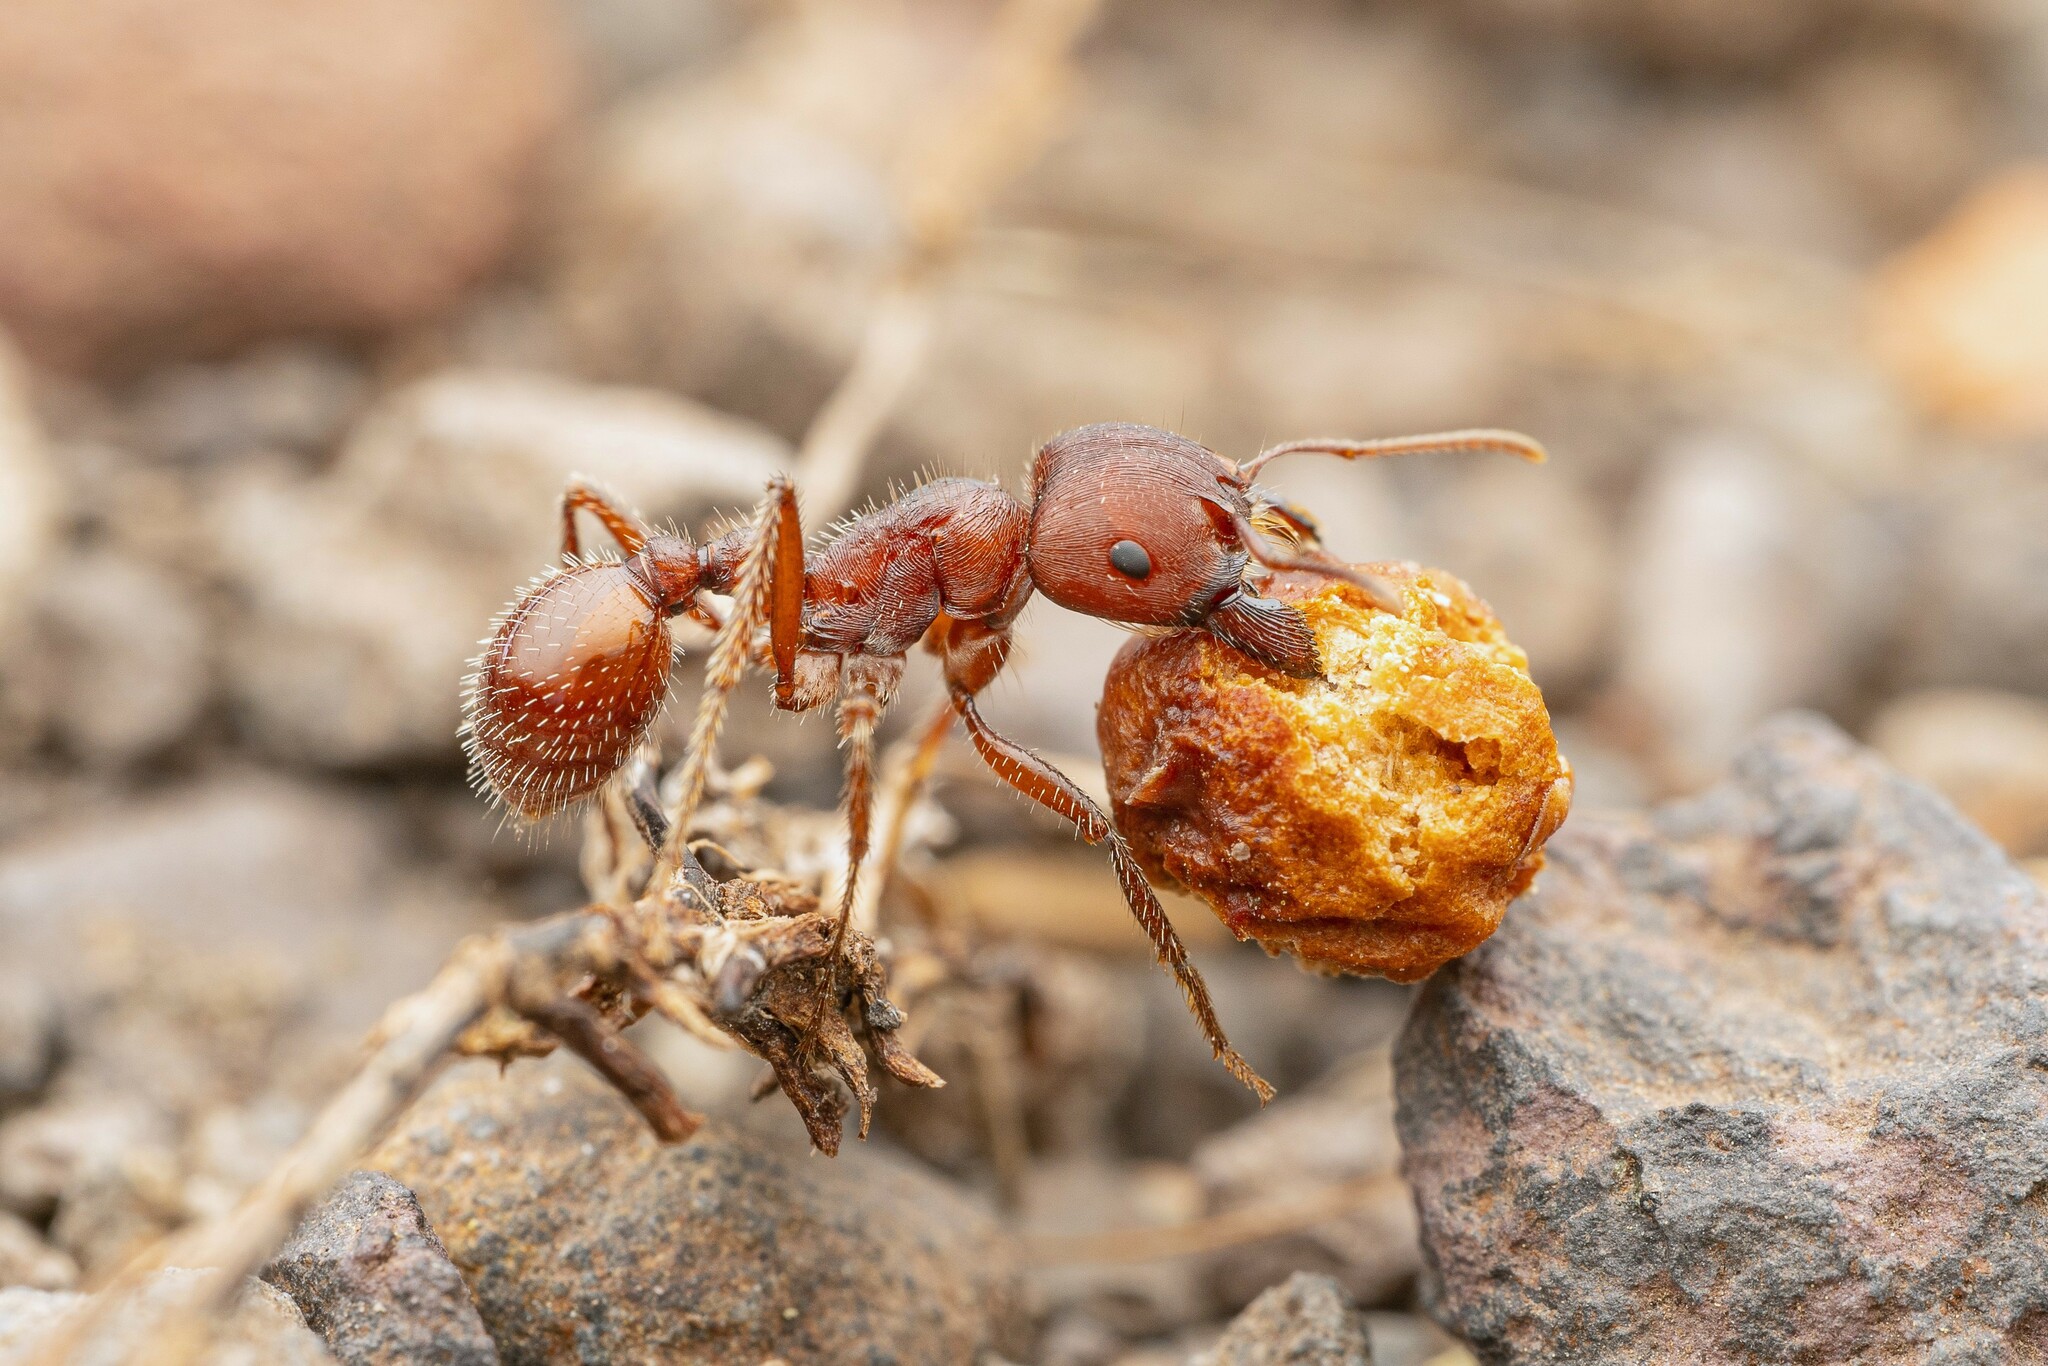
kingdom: Animalia
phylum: Arthropoda
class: Insecta
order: Hymenoptera
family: Formicidae
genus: Pogonomyrmex
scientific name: Pogonomyrmex barbatus
